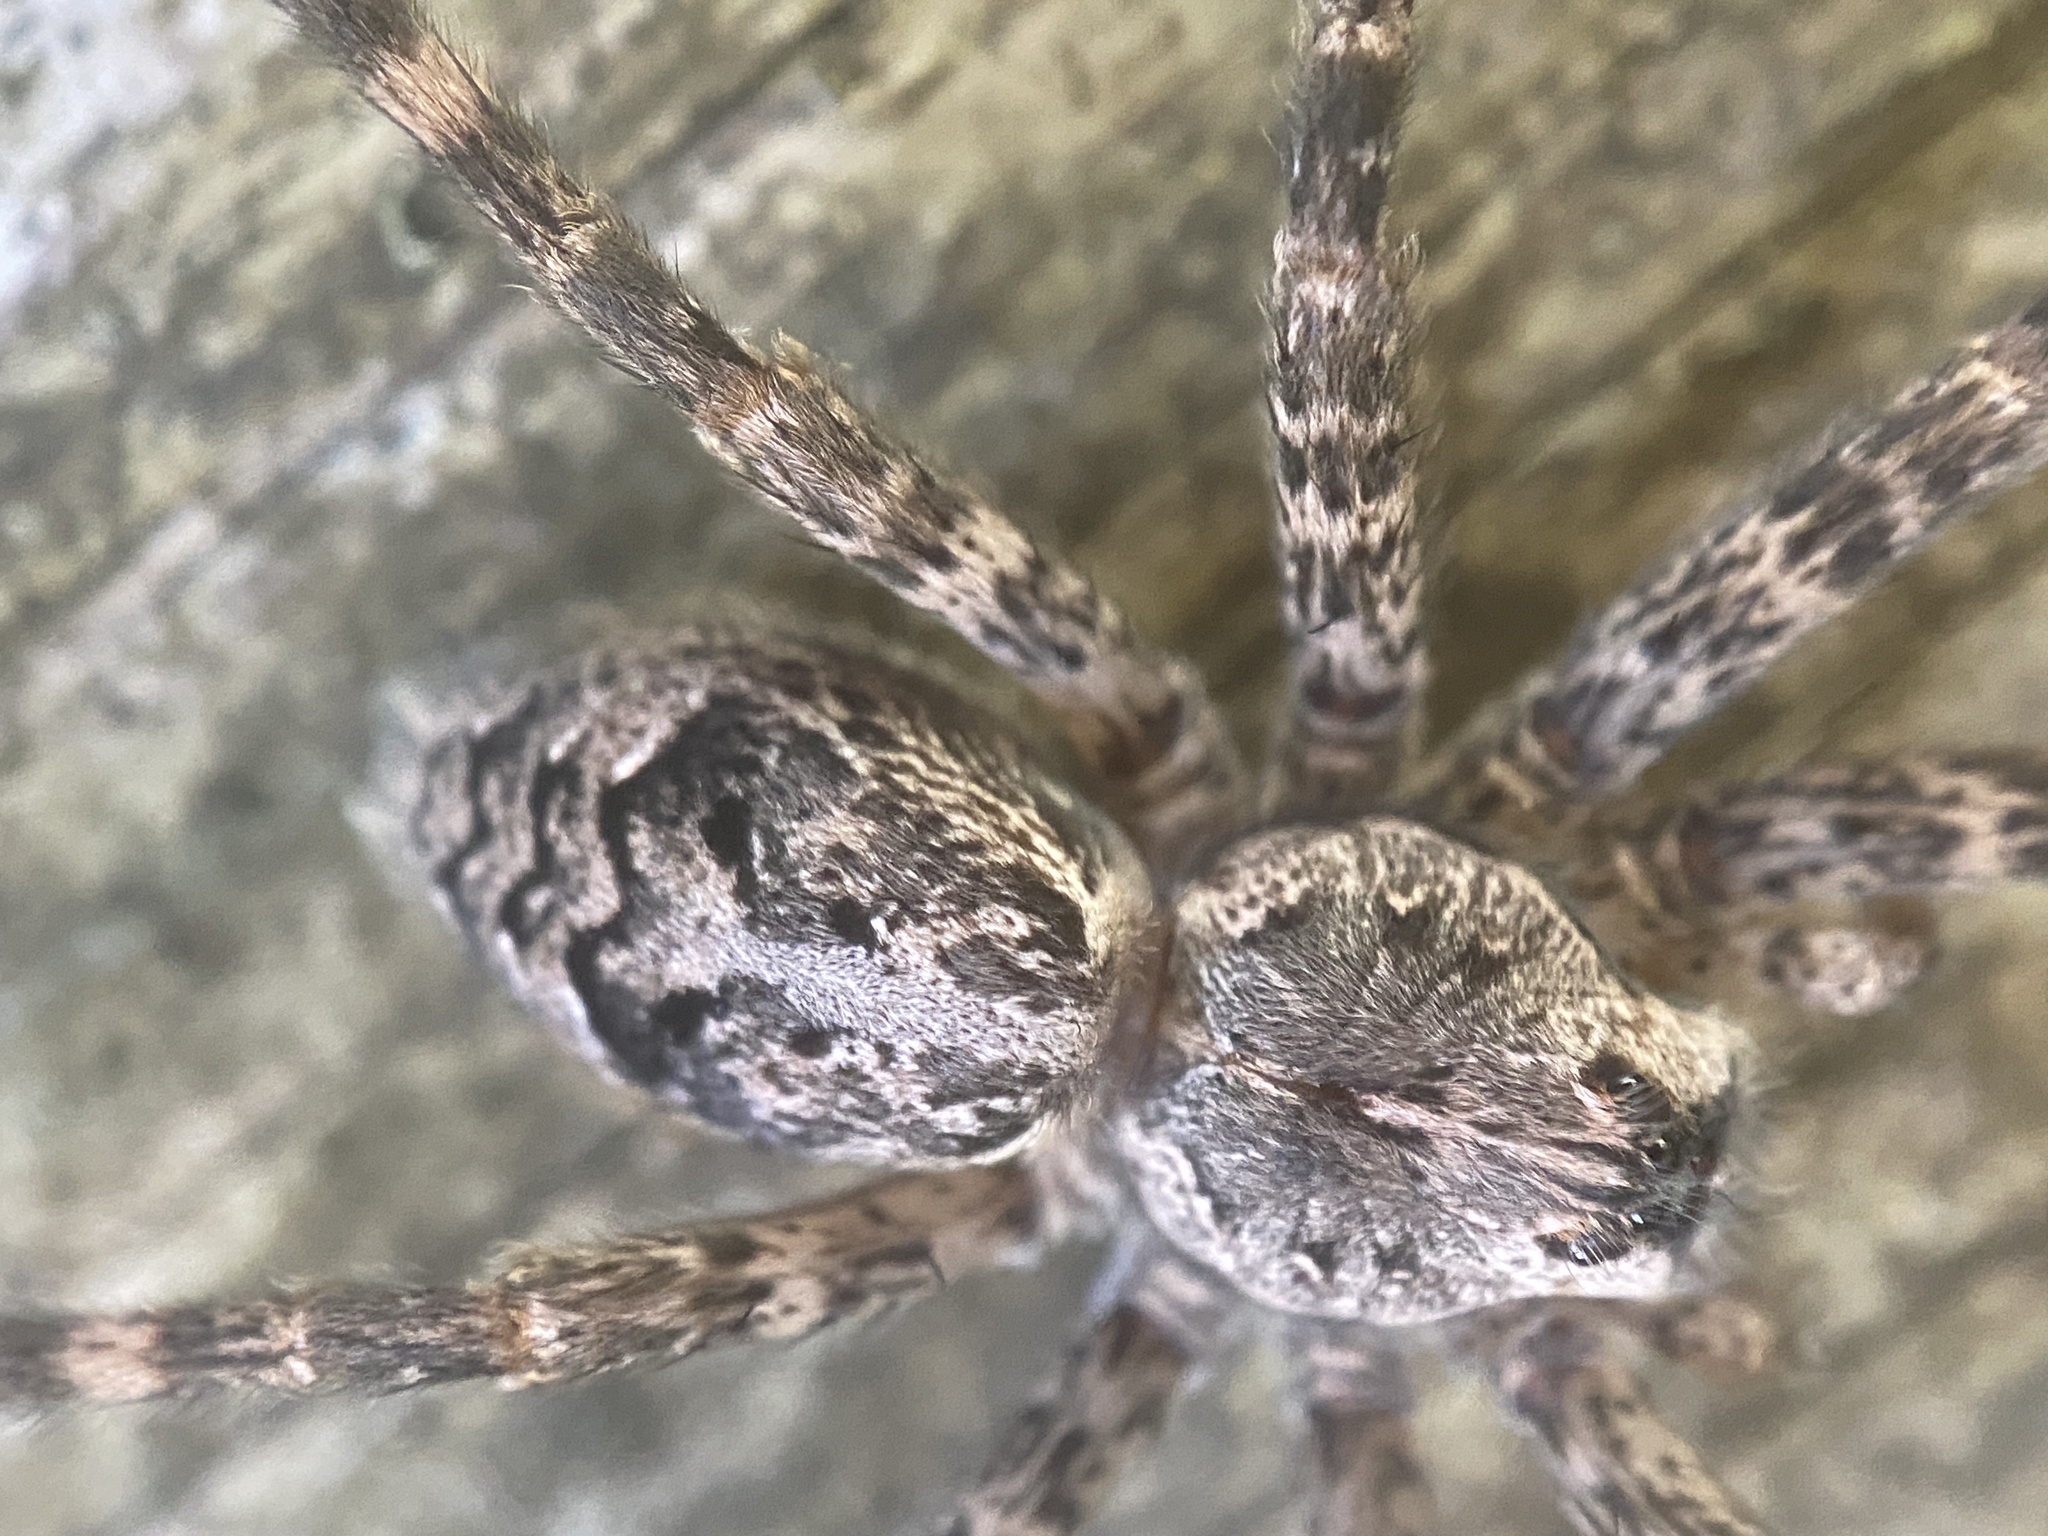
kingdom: Animalia
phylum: Arthropoda
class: Arachnida
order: Araneae
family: Pisauridae
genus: Dolomedes
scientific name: Dolomedes tenebrosus
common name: Dark fishing spider
